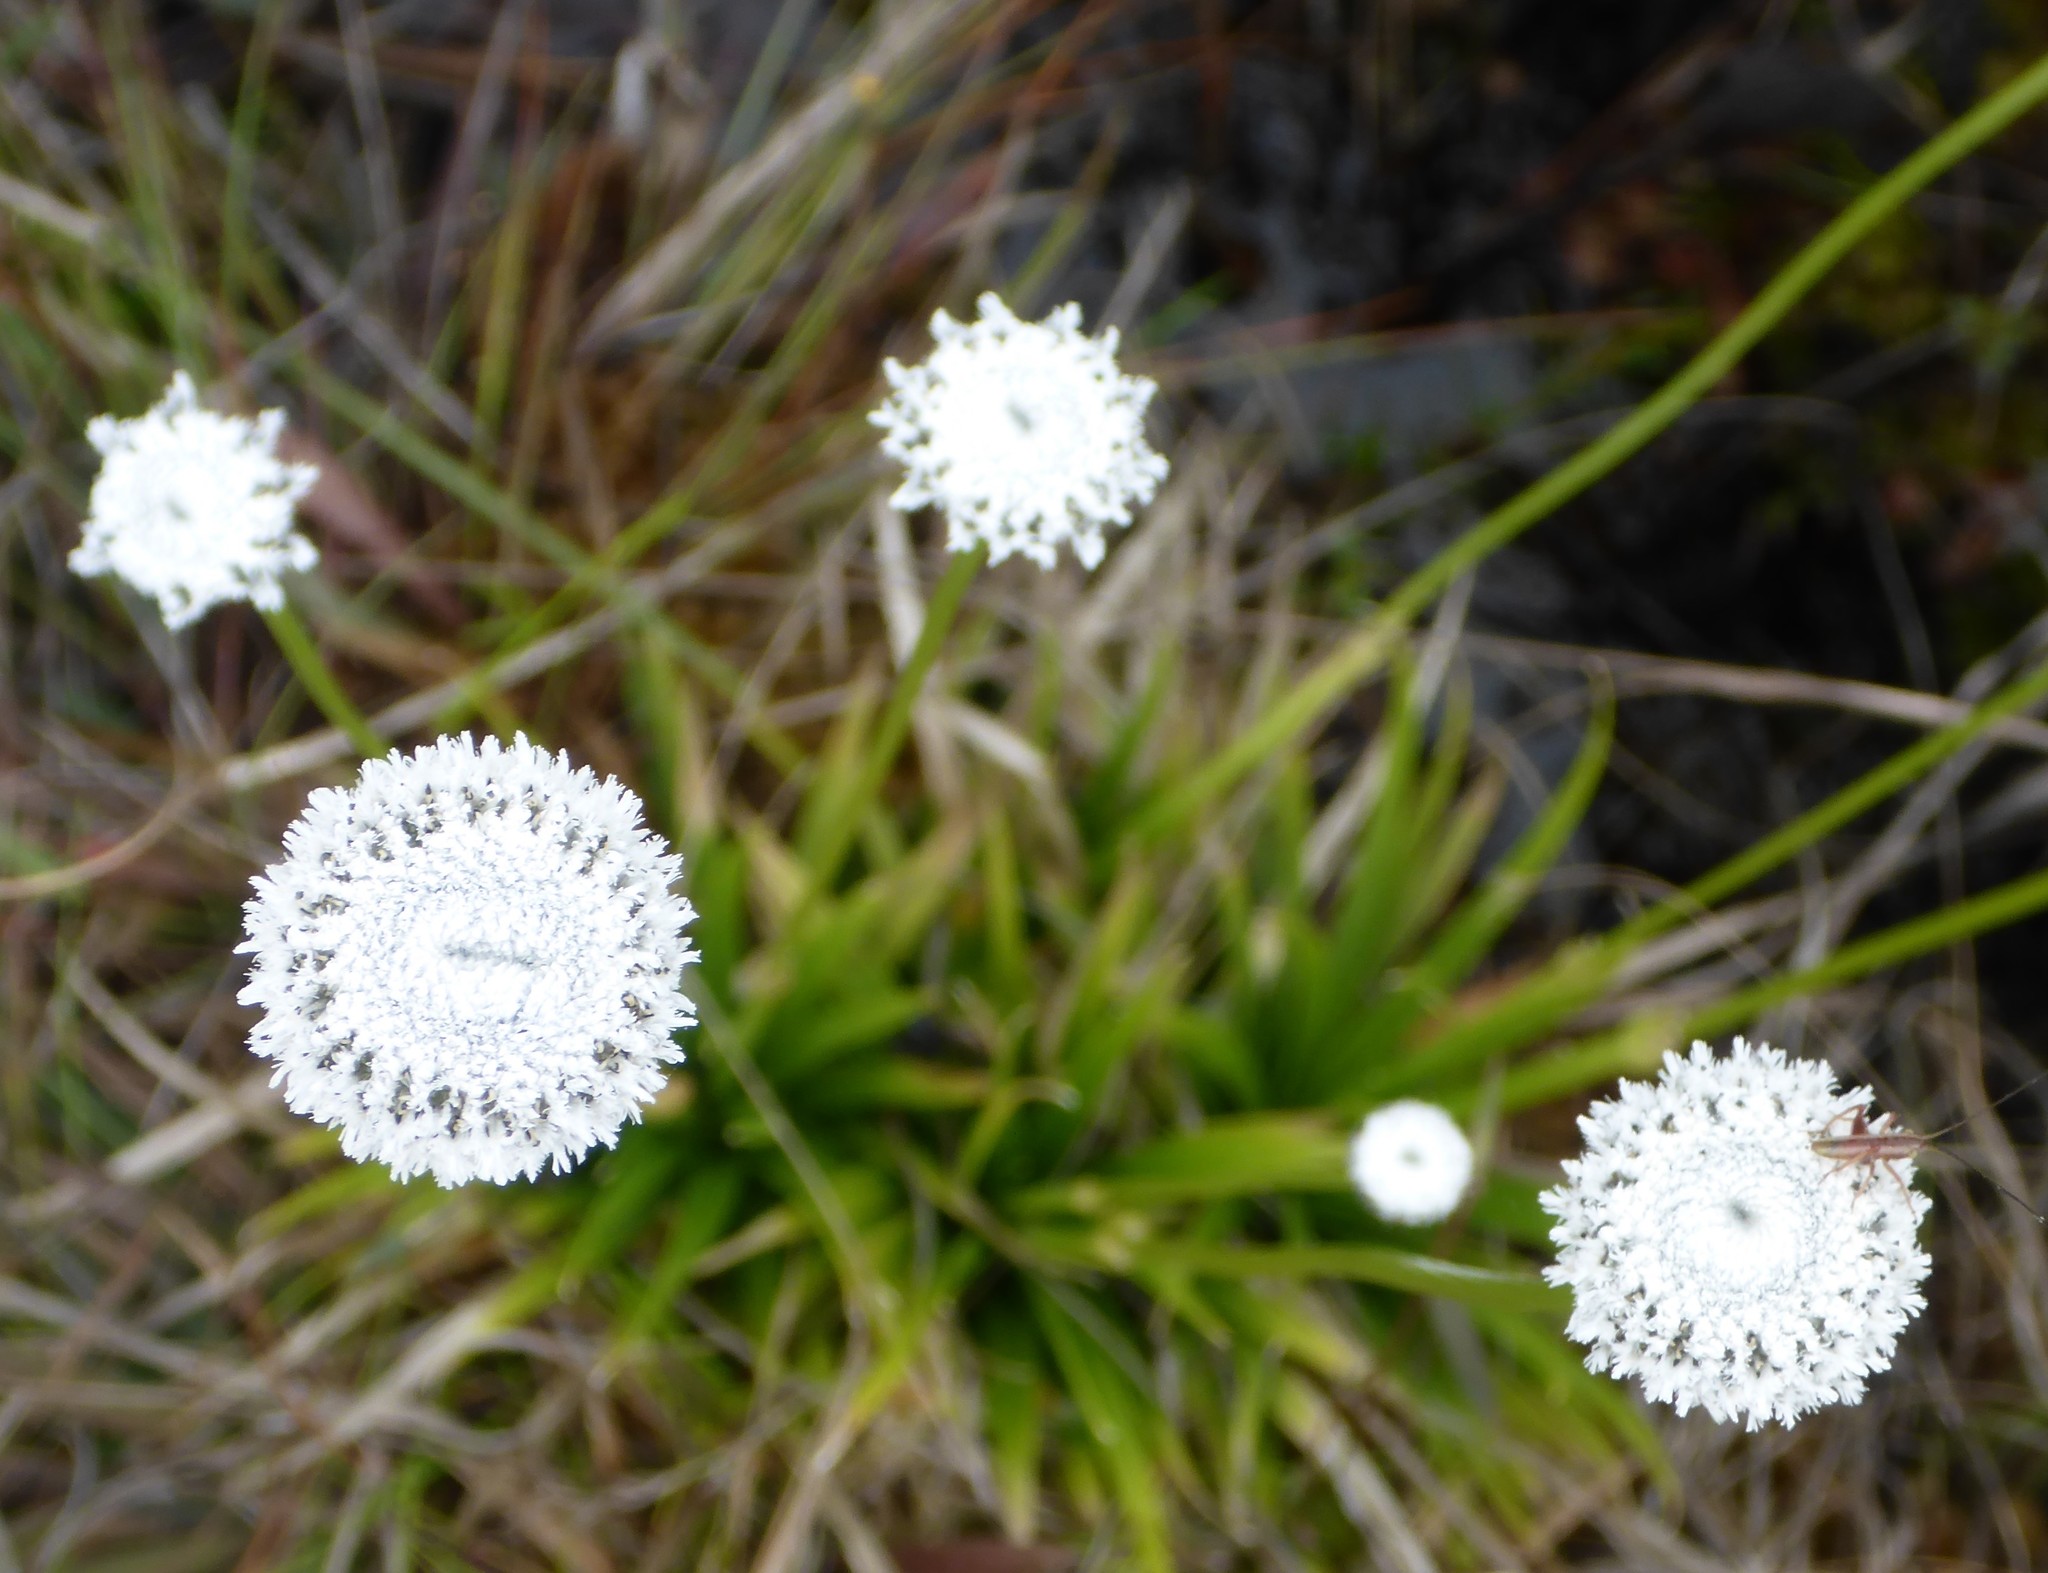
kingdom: Plantae
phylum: Tracheophyta
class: Liliopsida
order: Poales
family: Eriocaulaceae
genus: Eriocaulon
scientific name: Eriocaulon compressum
